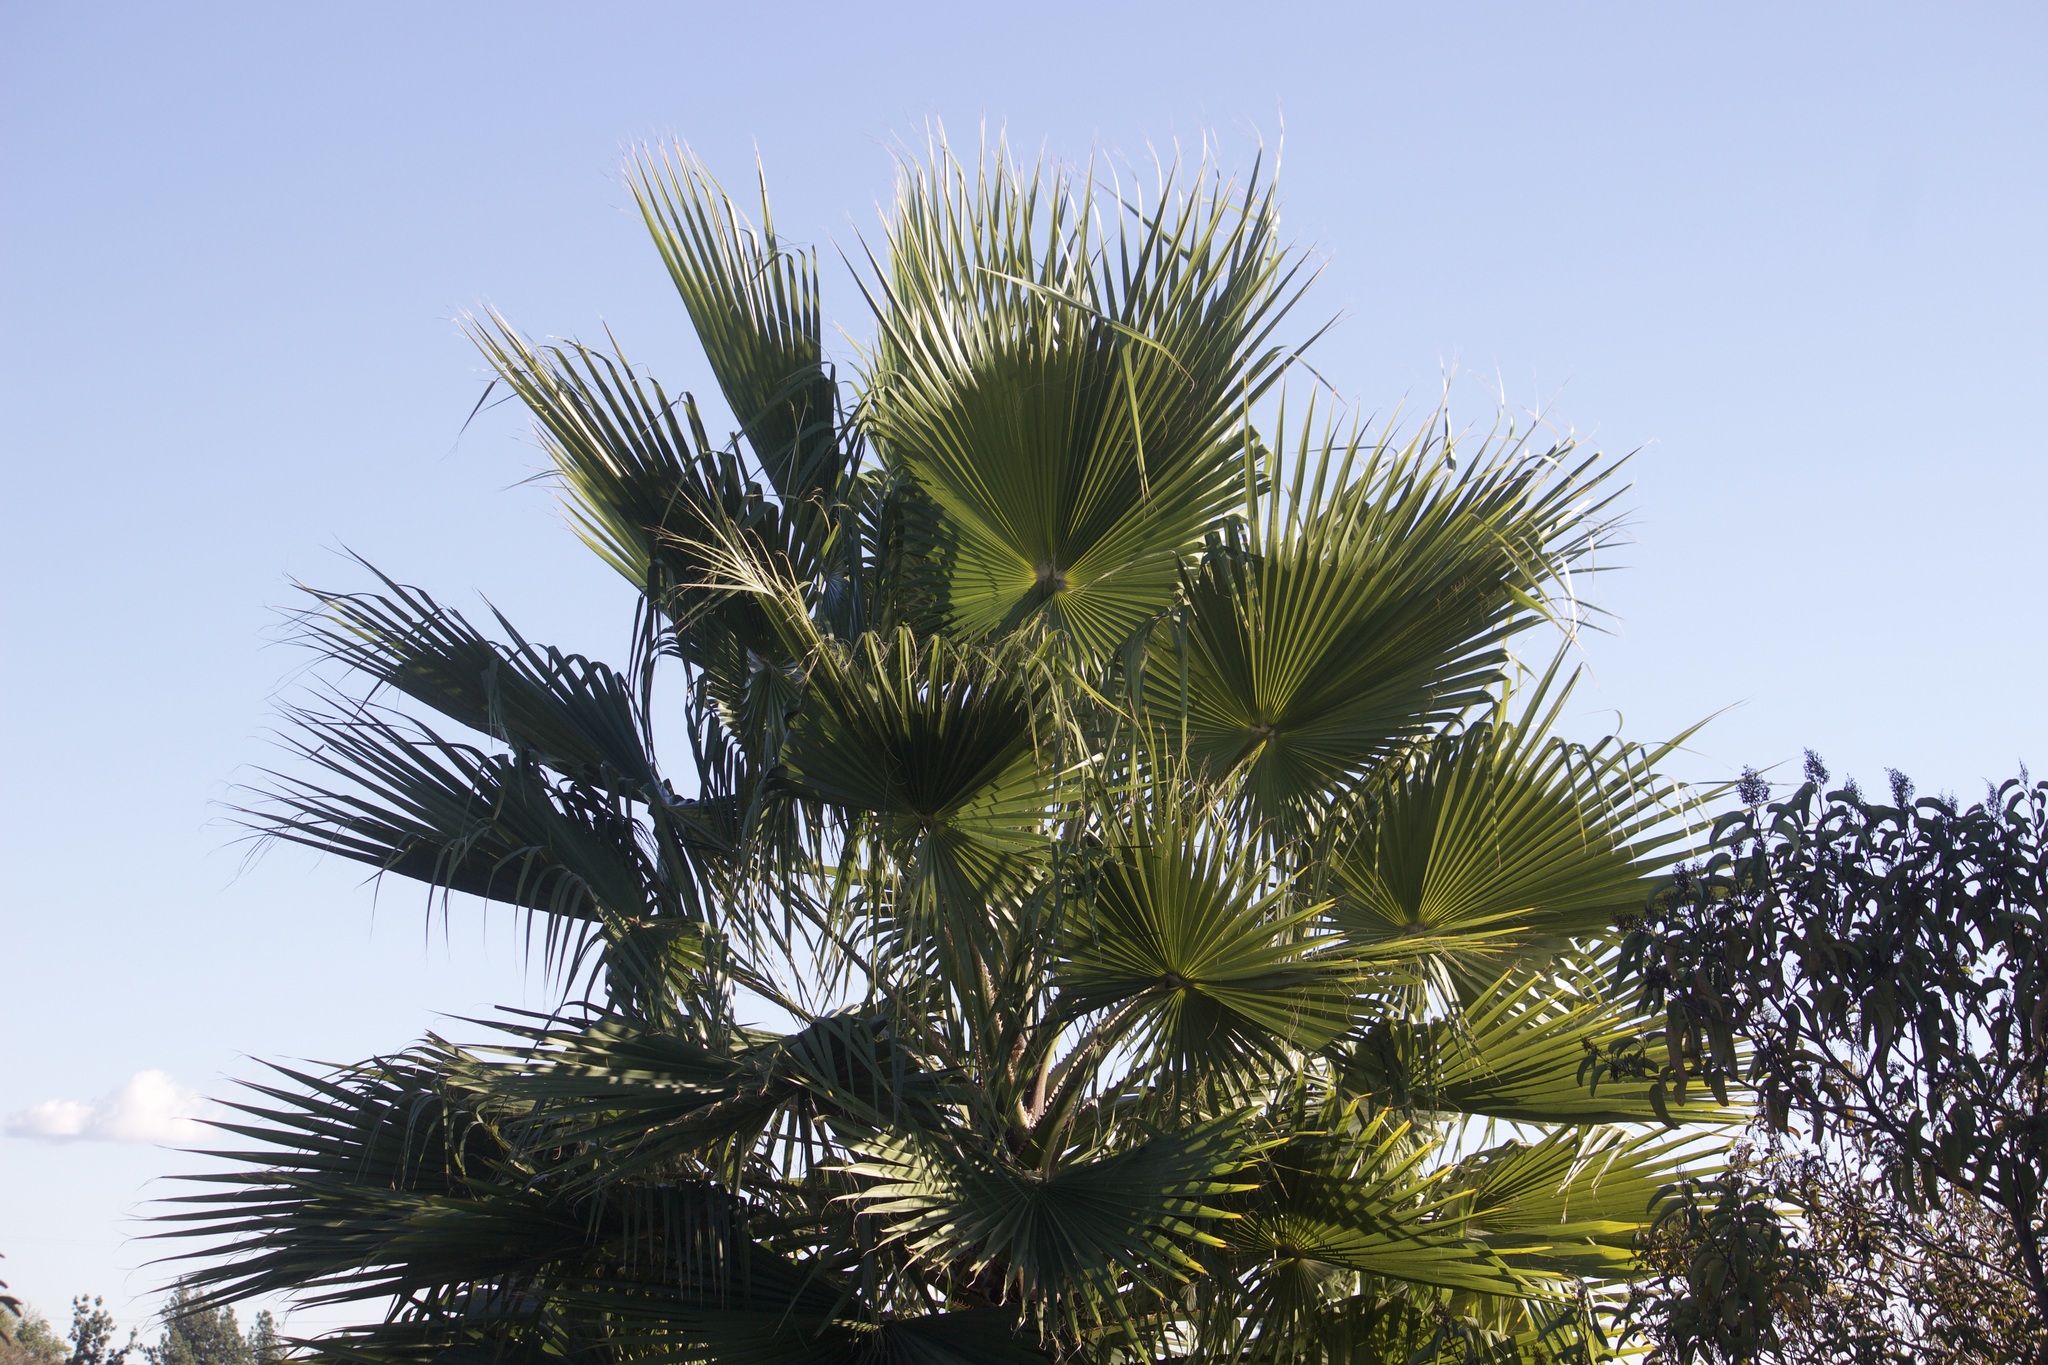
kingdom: Plantae
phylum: Tracheophyta
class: Liliopsida
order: Arecales
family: Arecaceae
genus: Washingtonia
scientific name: Washingtonia robusta
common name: Mexican fan palm
